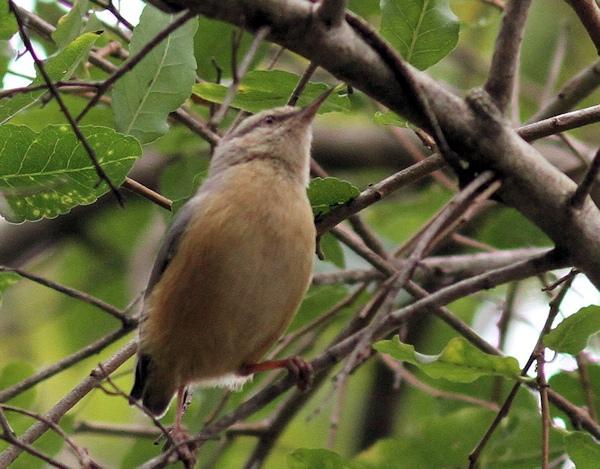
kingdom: Animalia
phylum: Chordata
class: Aves
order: Passeriformes
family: Macrosphenidae
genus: Sylvietta
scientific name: Sylvietta rufescens
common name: Long-billed crombec
